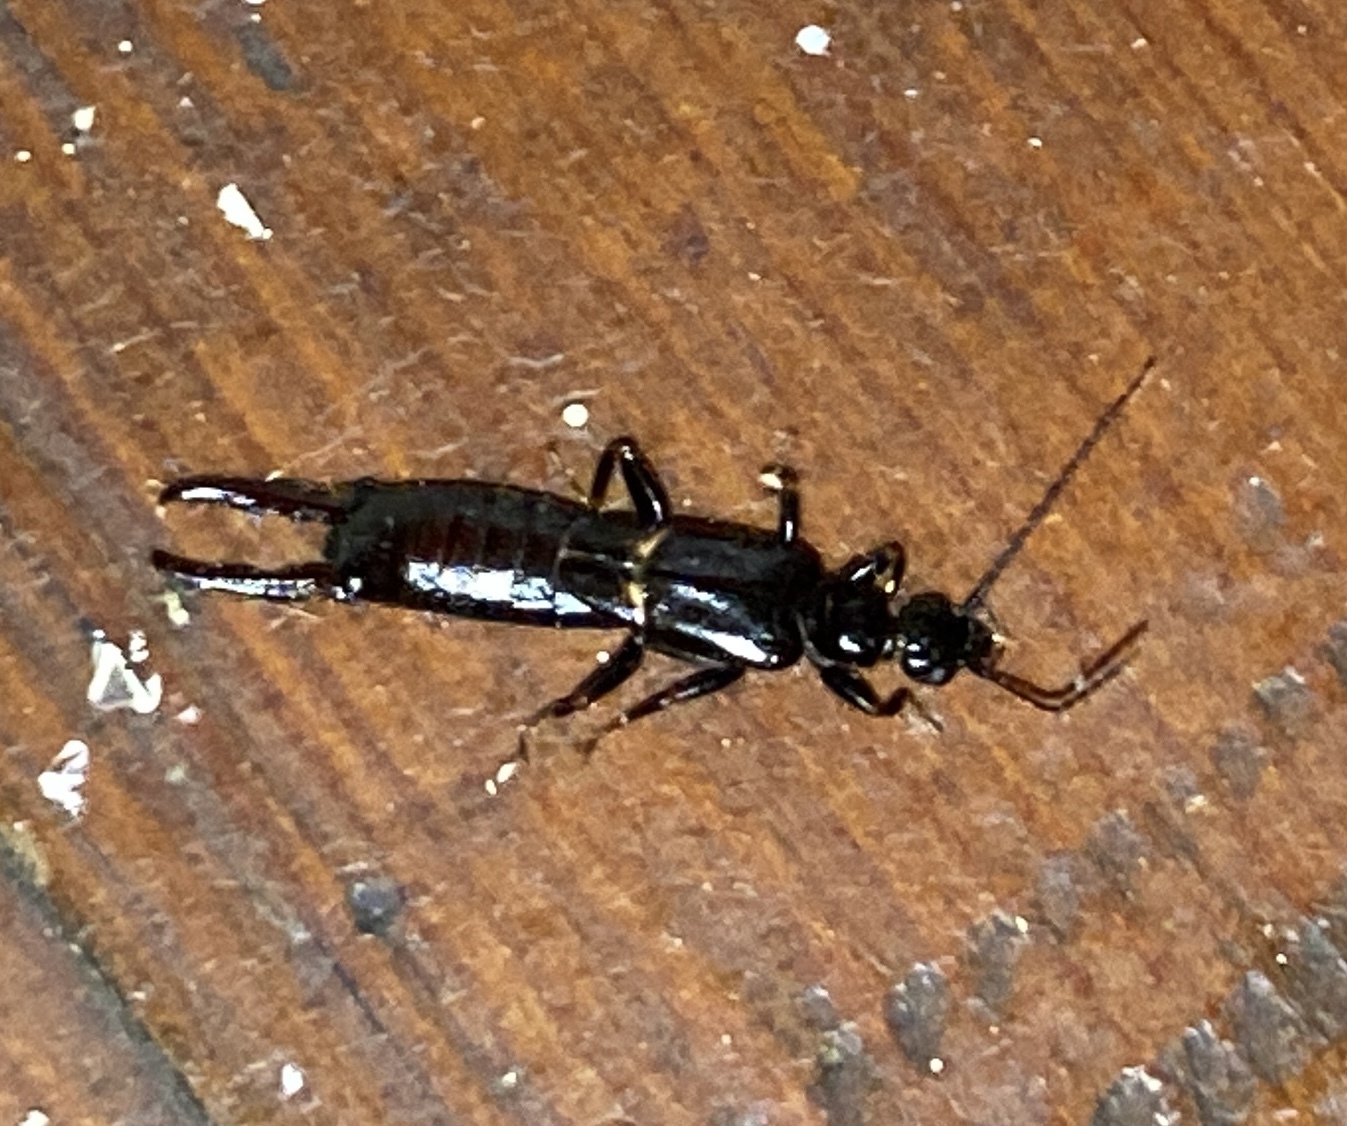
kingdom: Animalia
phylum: Arthropoda
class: Insecta
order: Dermaptera
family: Spongiphoridae
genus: Sphingolabis
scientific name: Sphingolabis hawaiiensis
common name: Earwig
